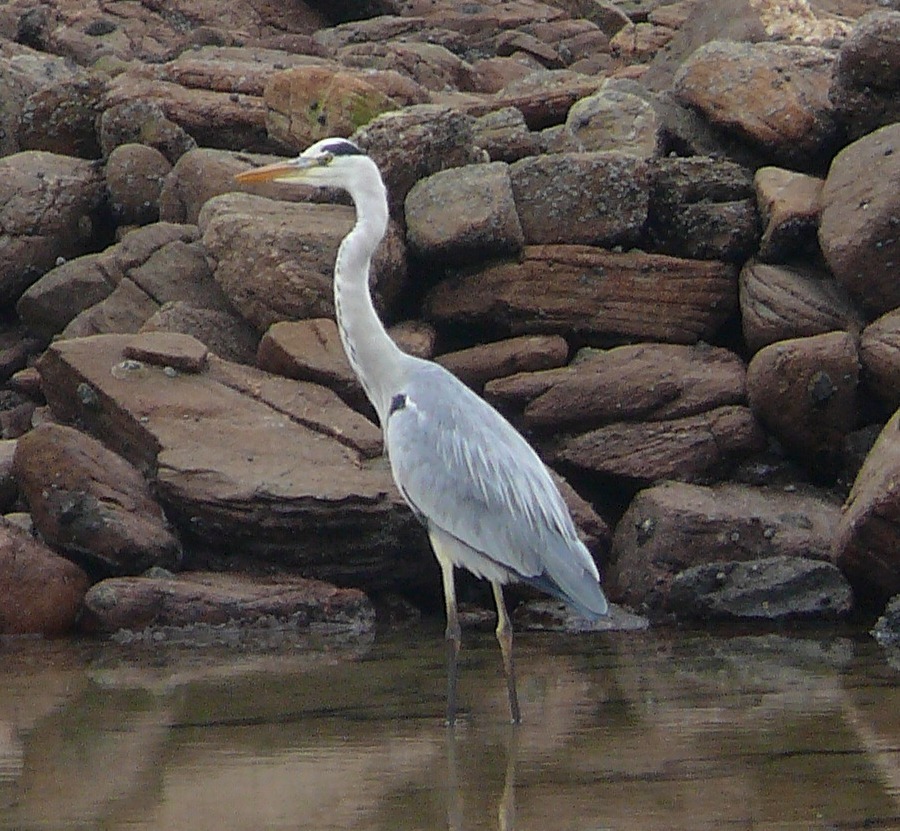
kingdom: Animalia
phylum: Chordata
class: Aves
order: Pelecaniformes
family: Ardeidae
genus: Ardea
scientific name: Ardea cinerea
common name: Grey heron
